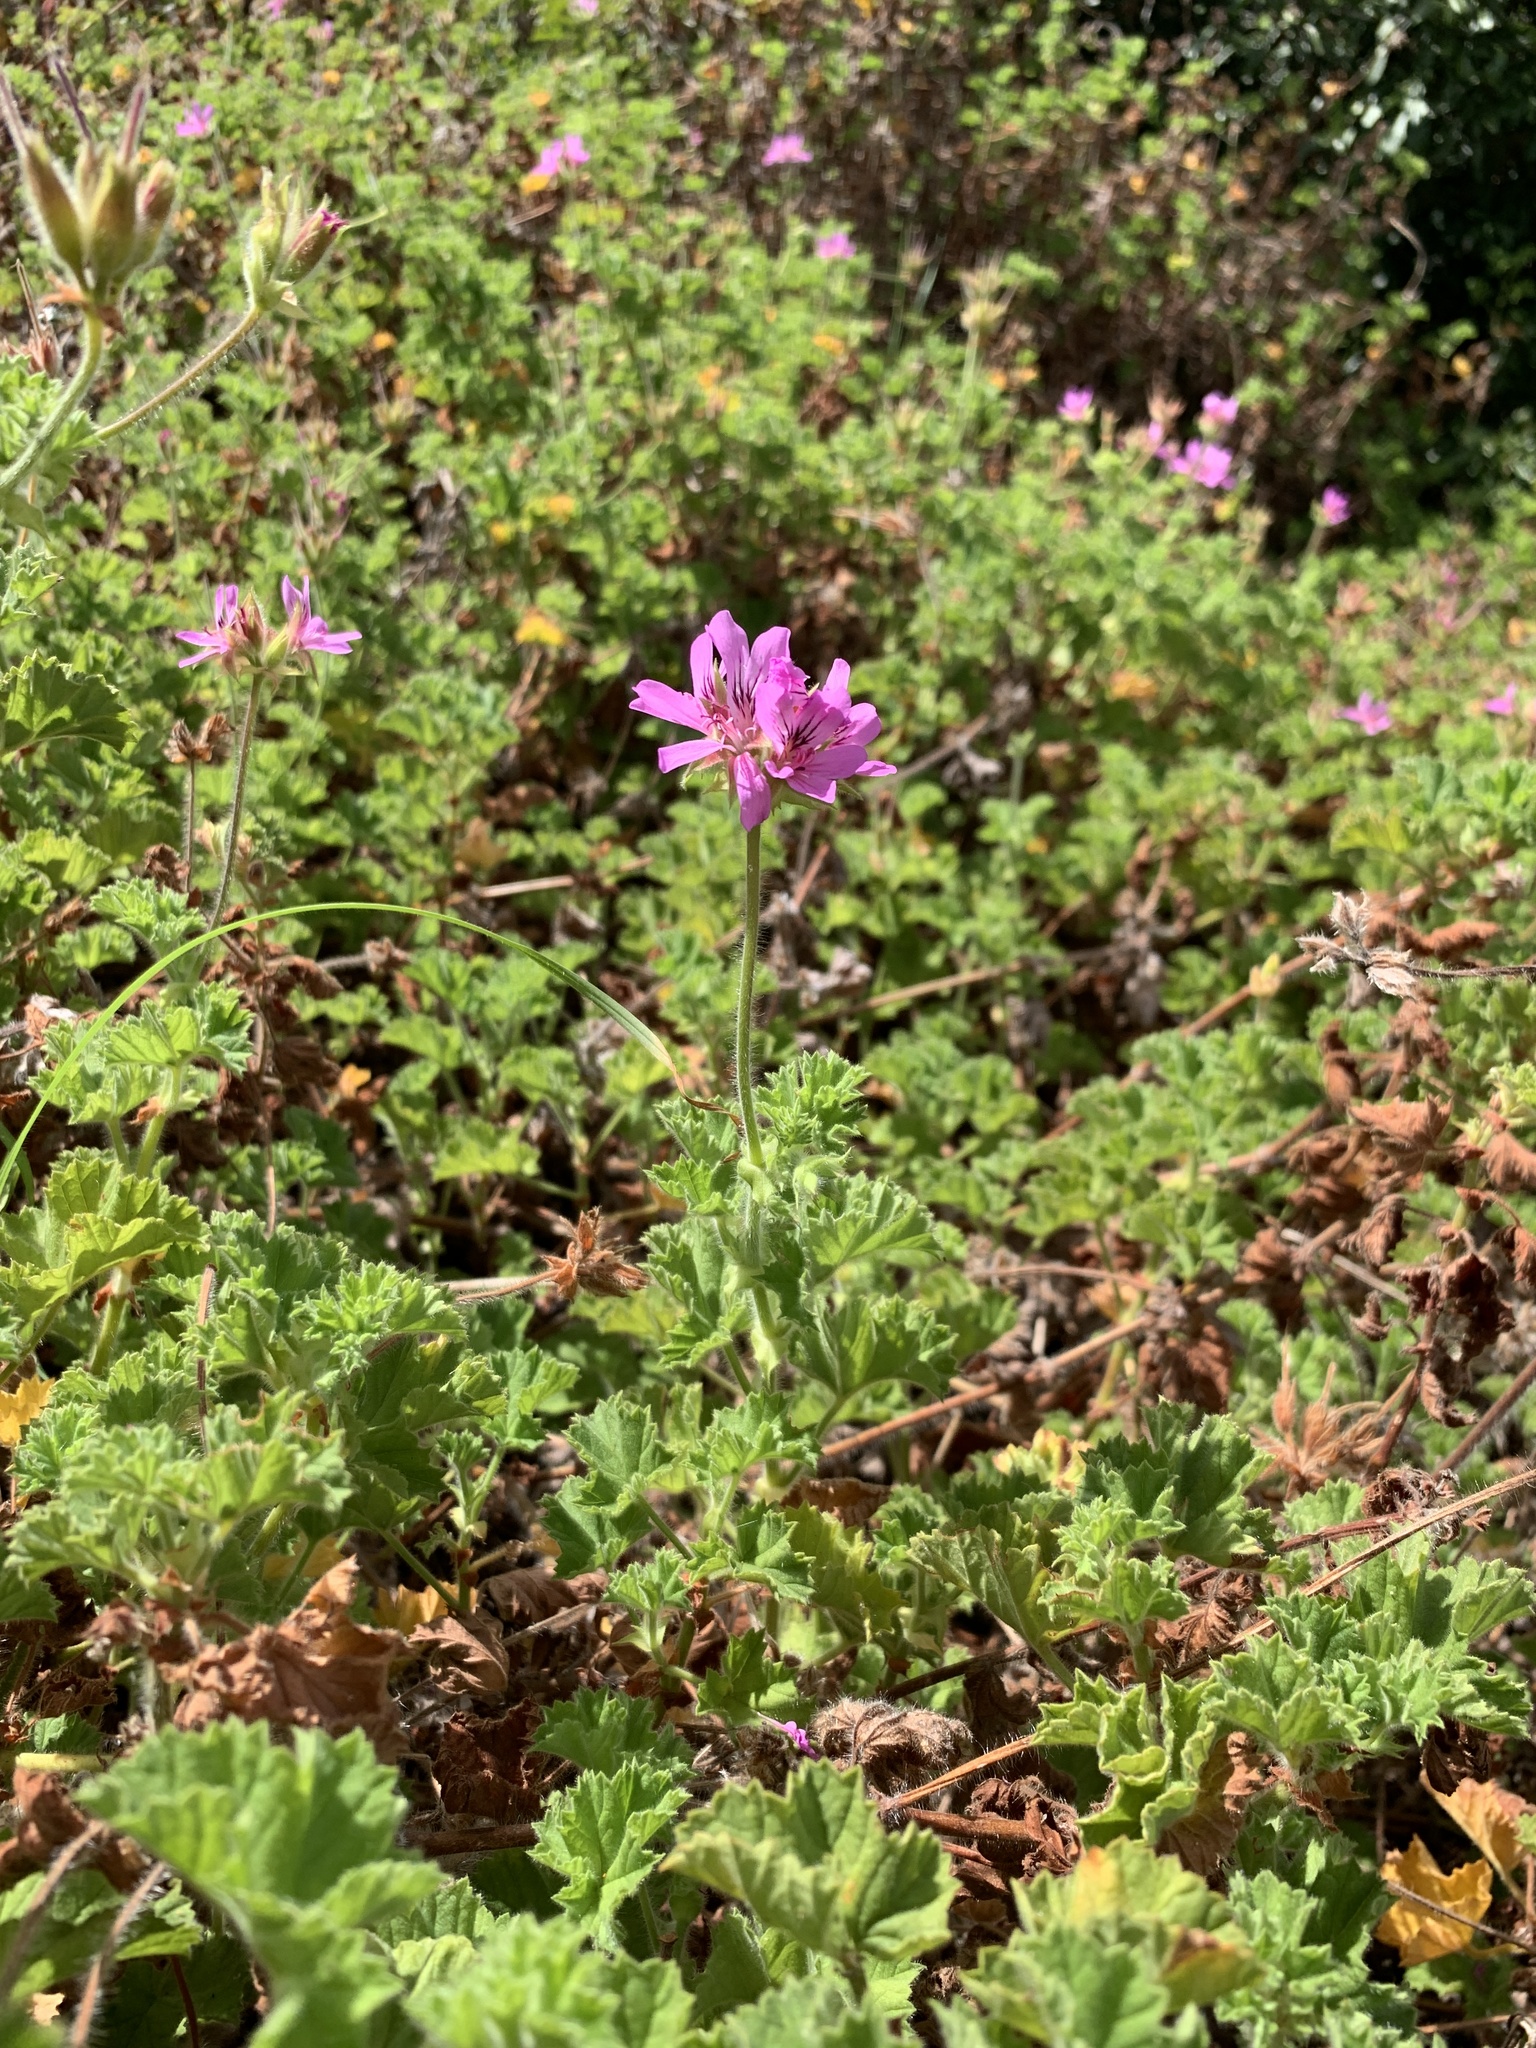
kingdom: Plantae
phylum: Tracheophyta
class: Magnoliopsida
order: Geraniales
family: Geraniaceae
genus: Pelargonium
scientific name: Pelargonium capitatum
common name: Rose scented geranium
